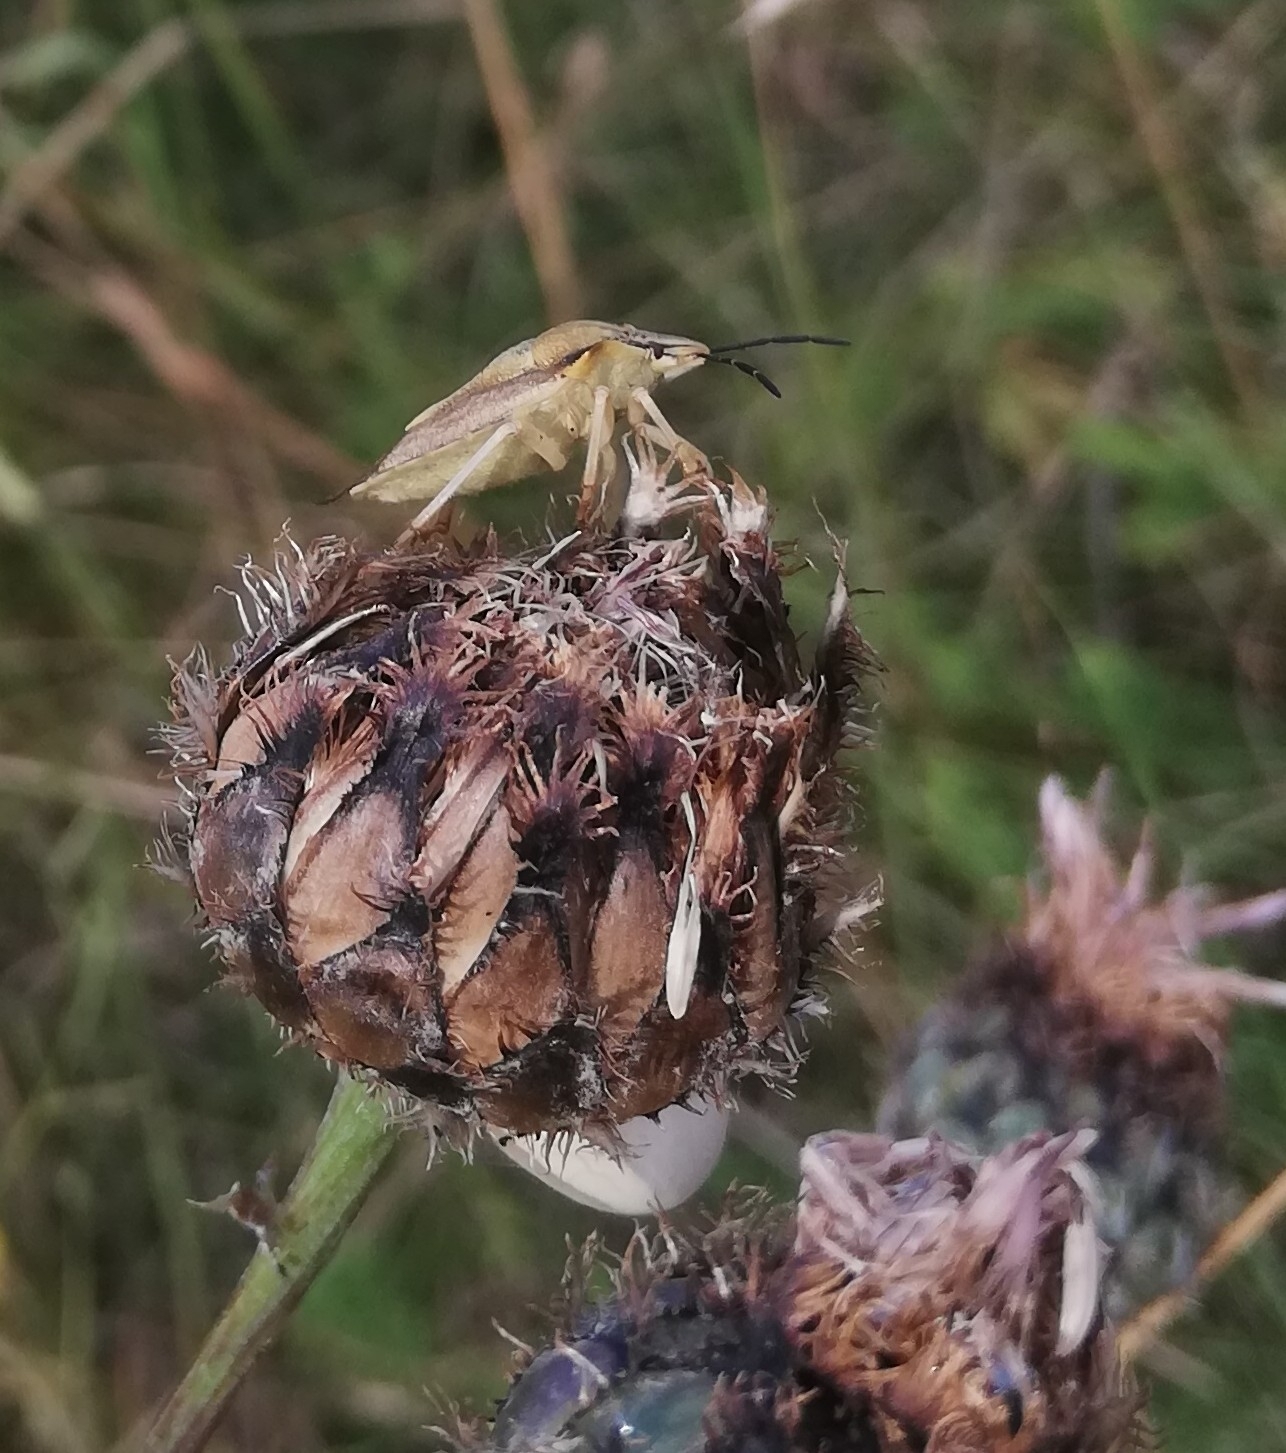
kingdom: Animalia
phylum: Arthropoda
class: Insecta
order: Hemiptera
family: Pentatomidae
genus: Carpocoris
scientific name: Carpocoris fuscispinus
